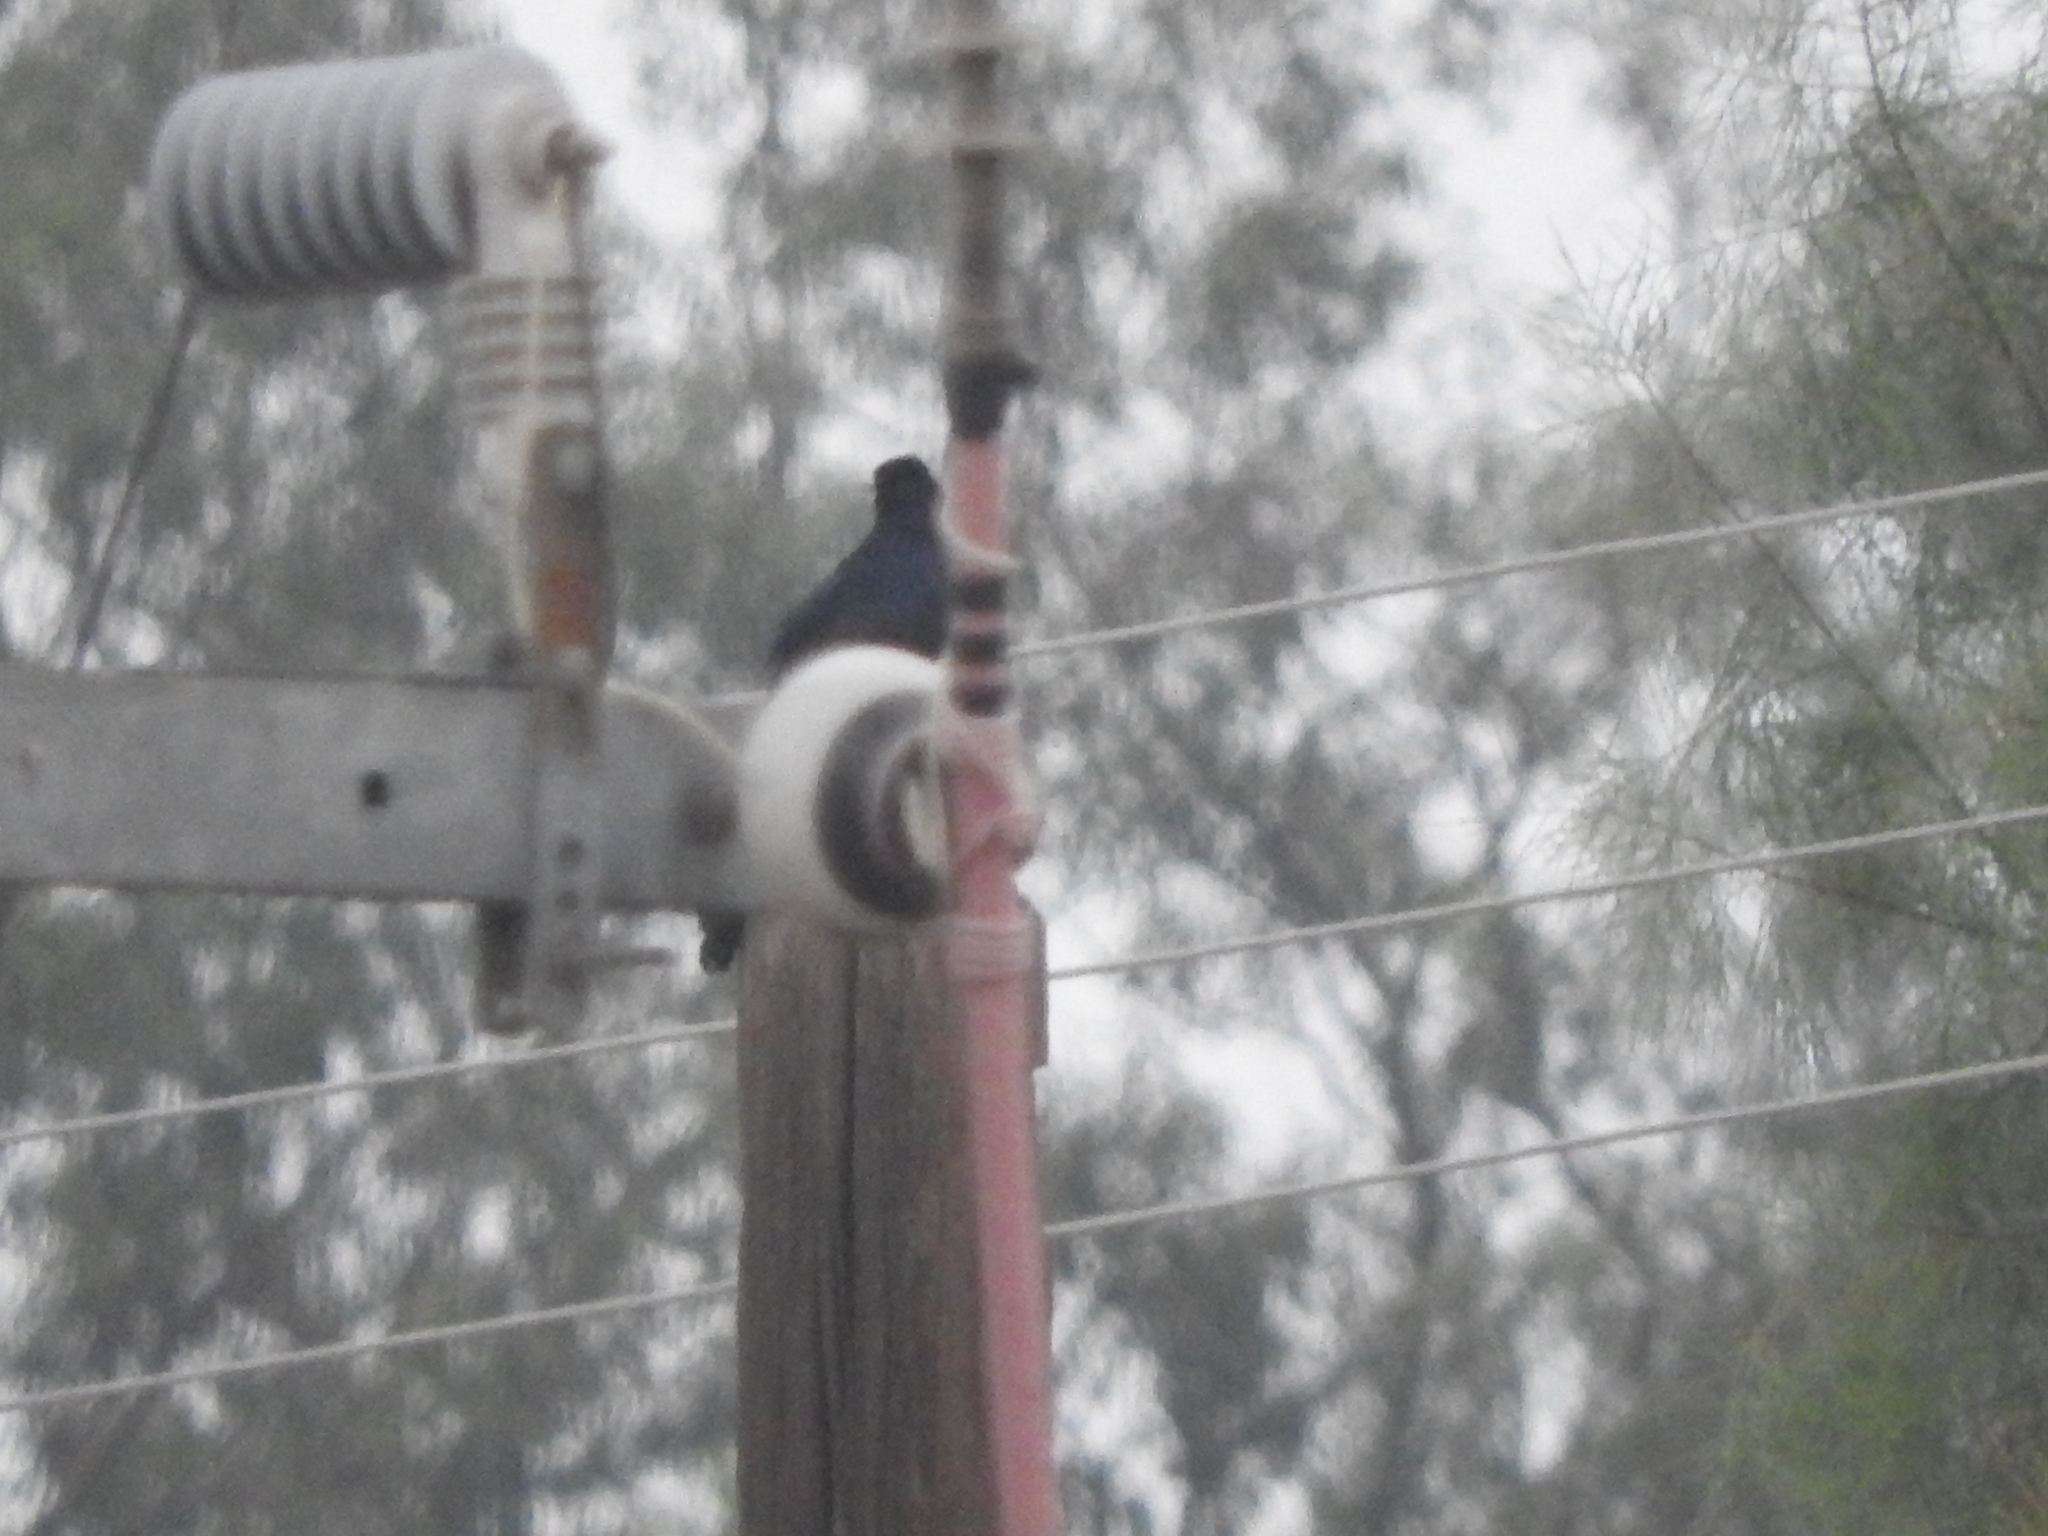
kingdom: Animalia
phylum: Chordata
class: Aves
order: Passeriformes
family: Icteridae
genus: Quiscalus
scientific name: Quiscalus mexicanus
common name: Great-tailed grackle
